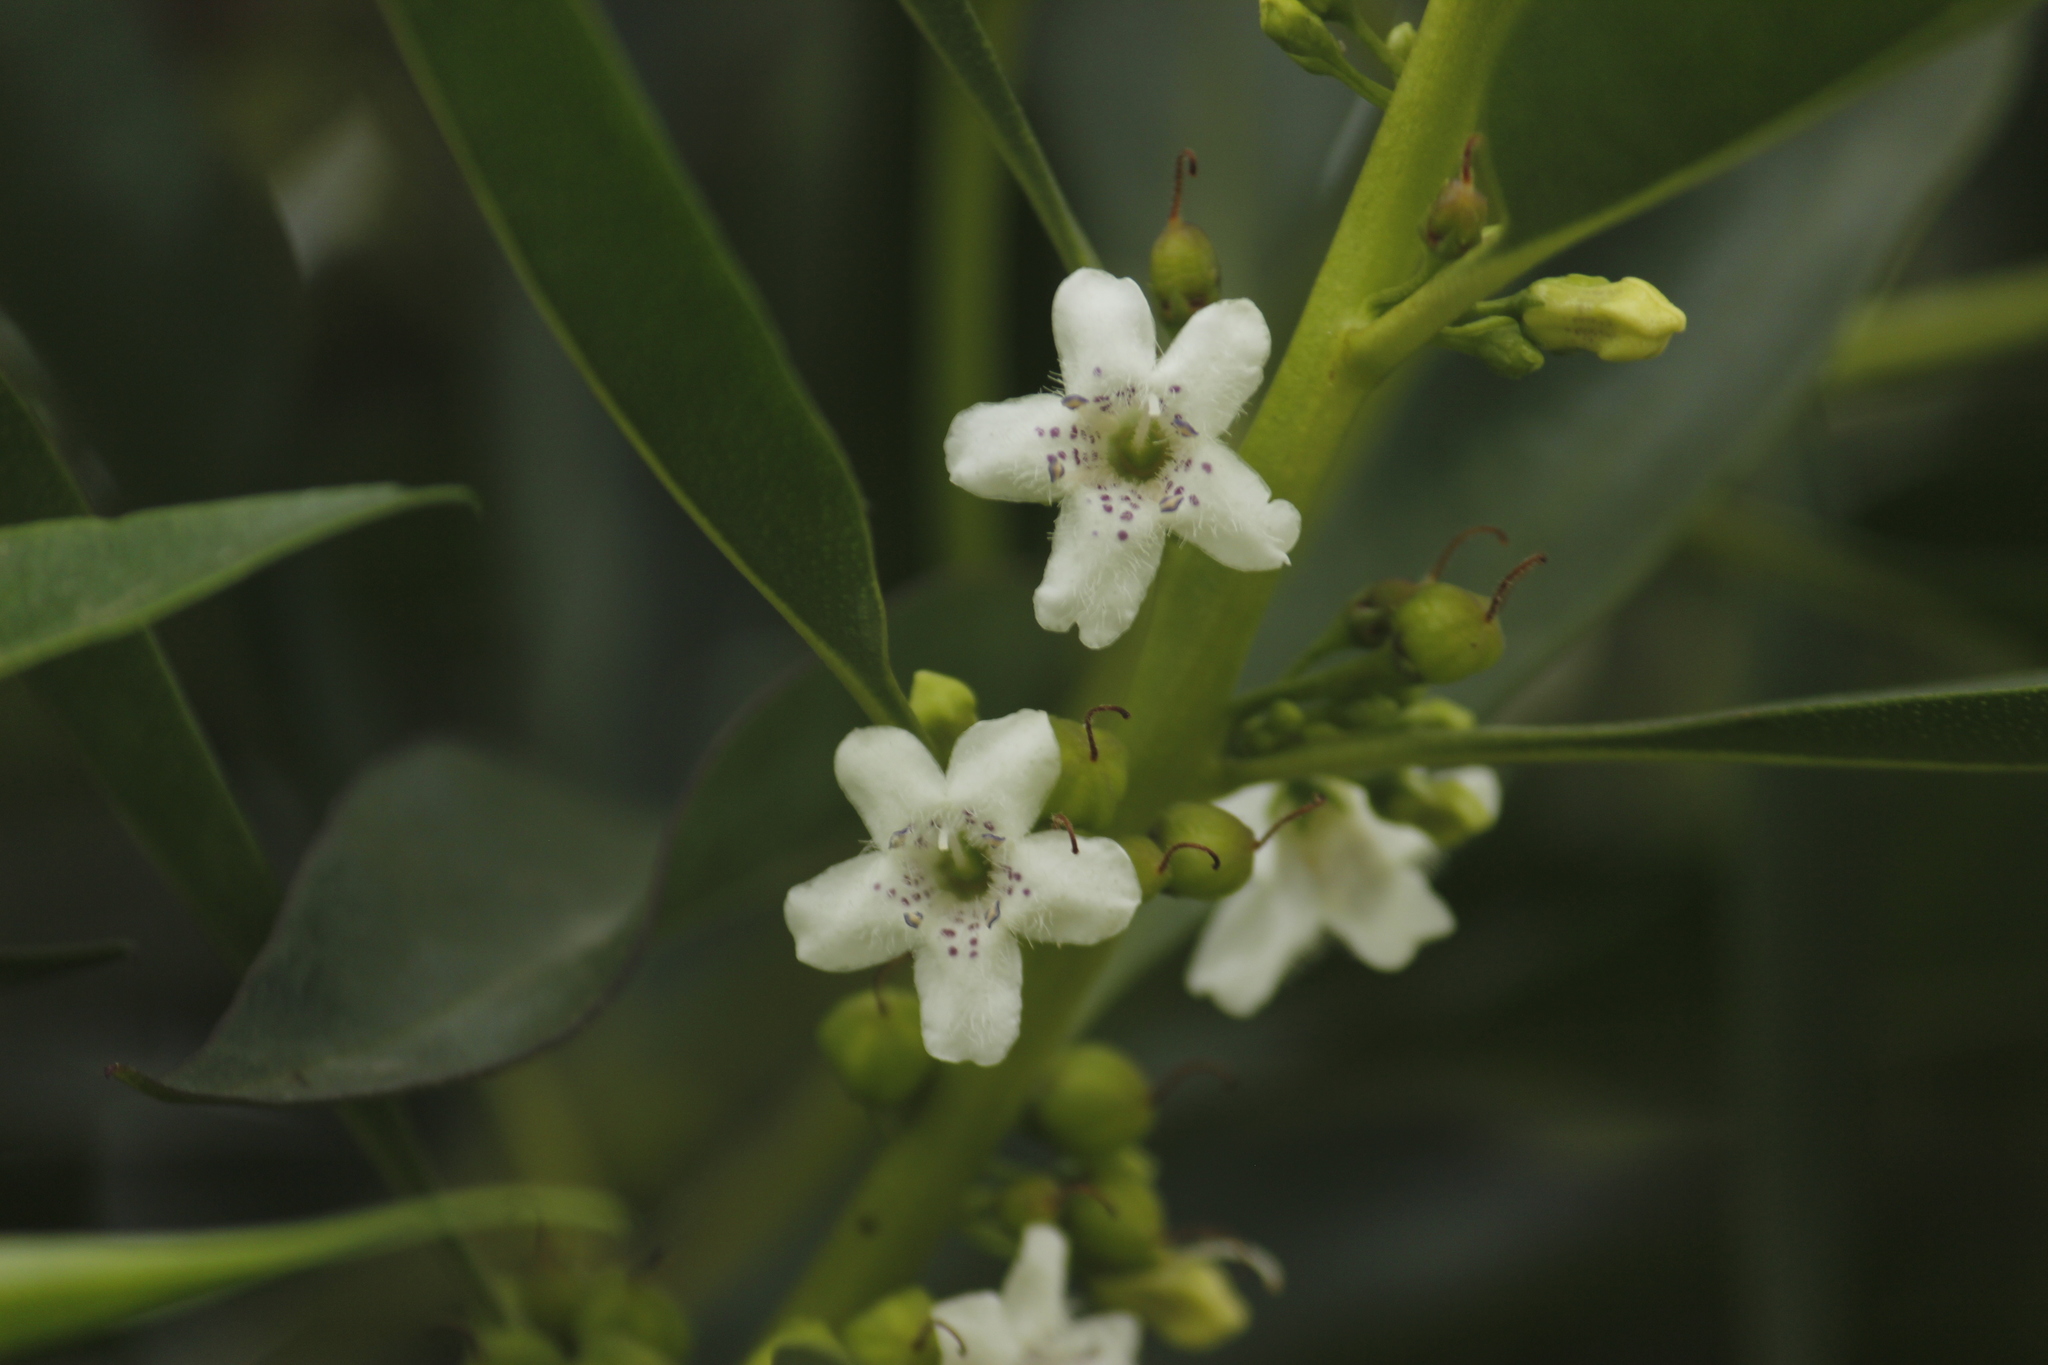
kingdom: Plantae
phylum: Tracheophyta
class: Magnoliopsida
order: Lamiales
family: Scrophulariaceae
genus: Myoporum
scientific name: Myoporum acuminatum
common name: Pointed boobialla
